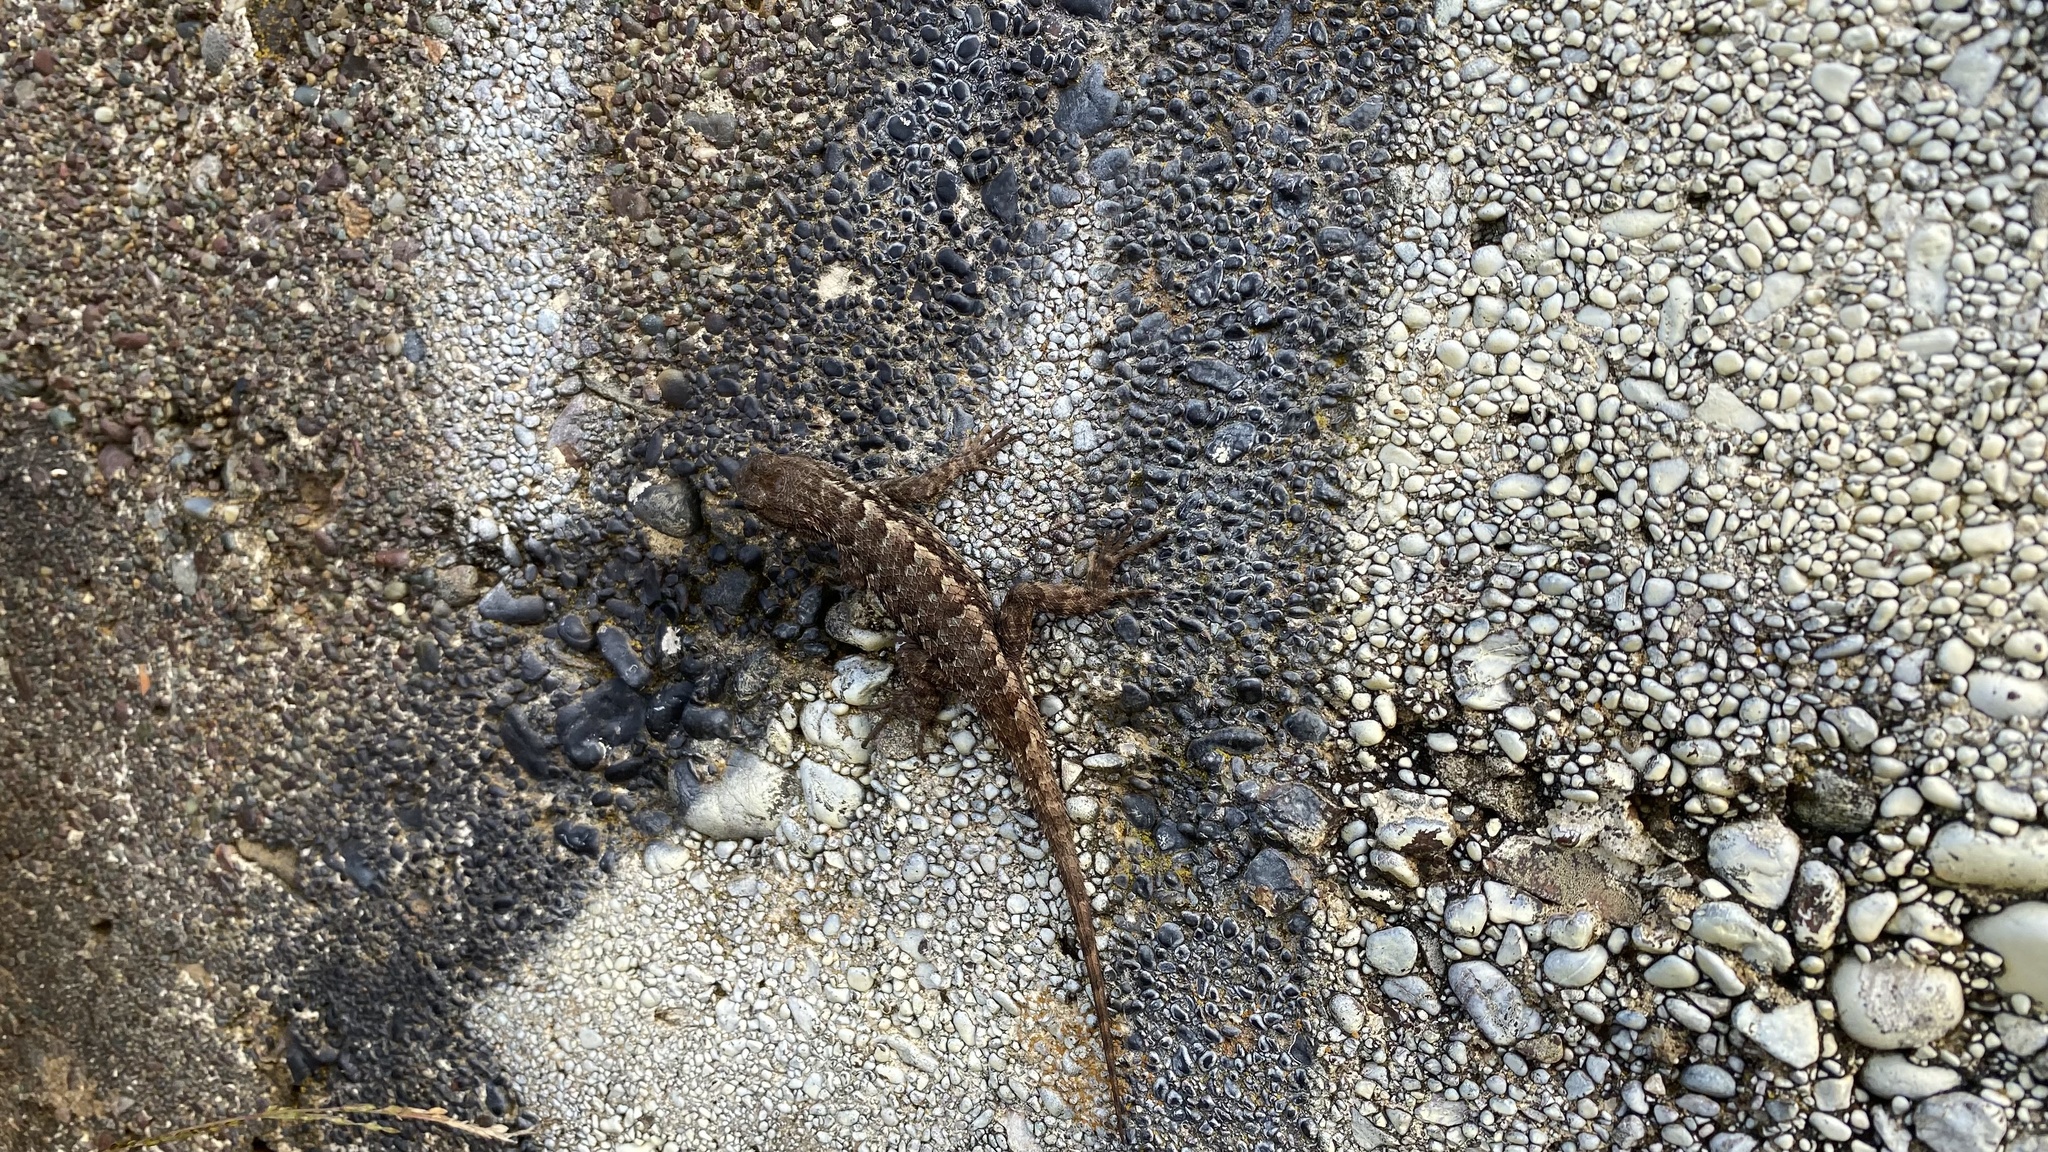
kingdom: Animalia
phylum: Chordata
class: Squamata
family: Phrynosomatidae
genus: Sceloporus
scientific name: Sceloporus occidentalis
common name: Western fence lizard
